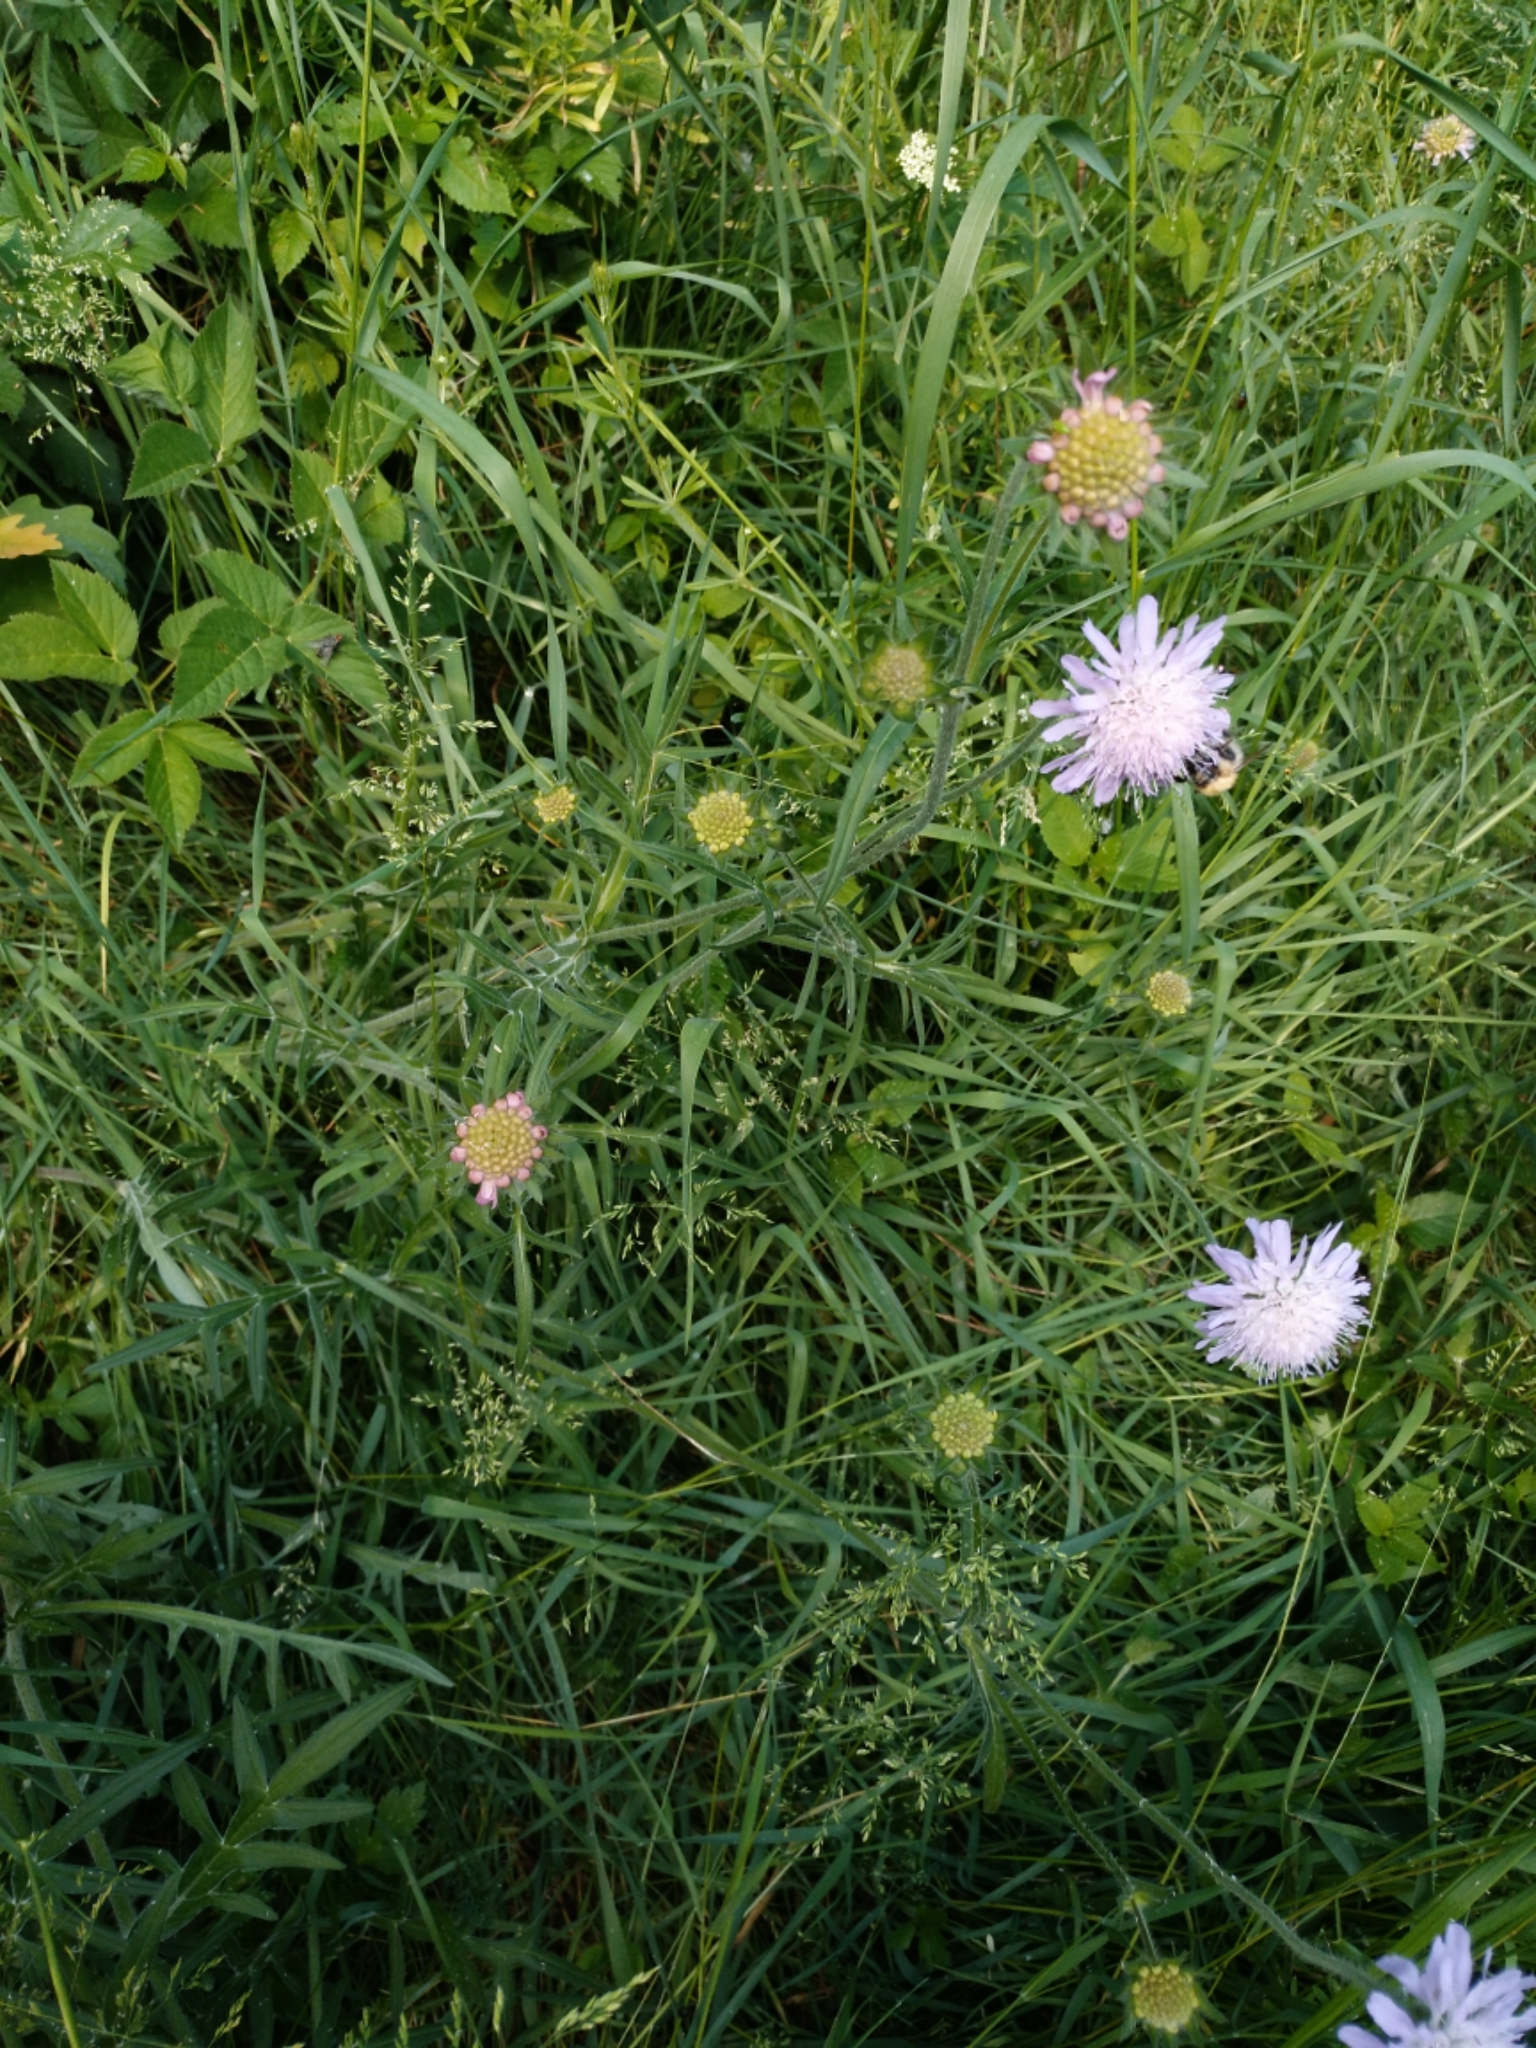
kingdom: Plantae
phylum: Tracheophyta
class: Magnoliopsida
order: Dipsacales
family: Caprifoliaceae
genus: Knautia
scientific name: Knautia arvensis
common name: Field scabiosa
